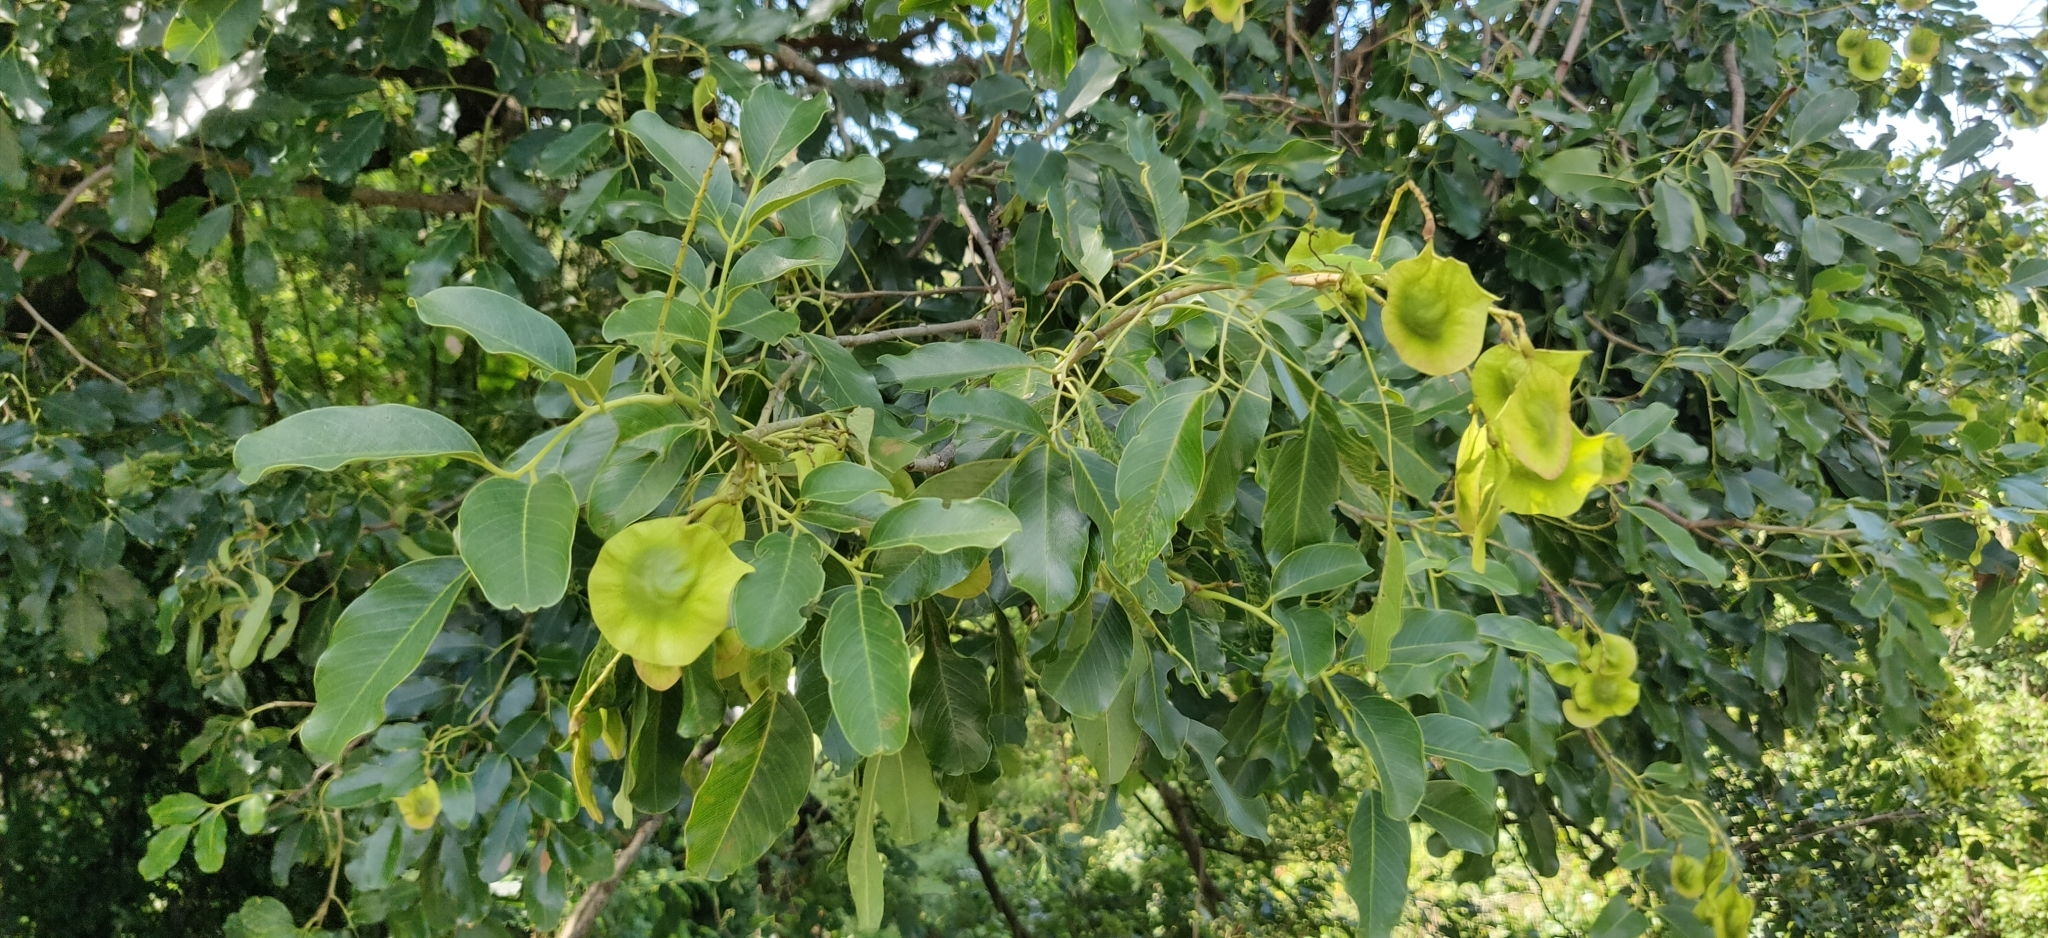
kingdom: Plantae
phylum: Tracheophyta
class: Magnoliopsida
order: Fabales
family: Fabaceae
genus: Pterocarpus
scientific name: Pterocarpus indicus
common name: Burmese rosewood
